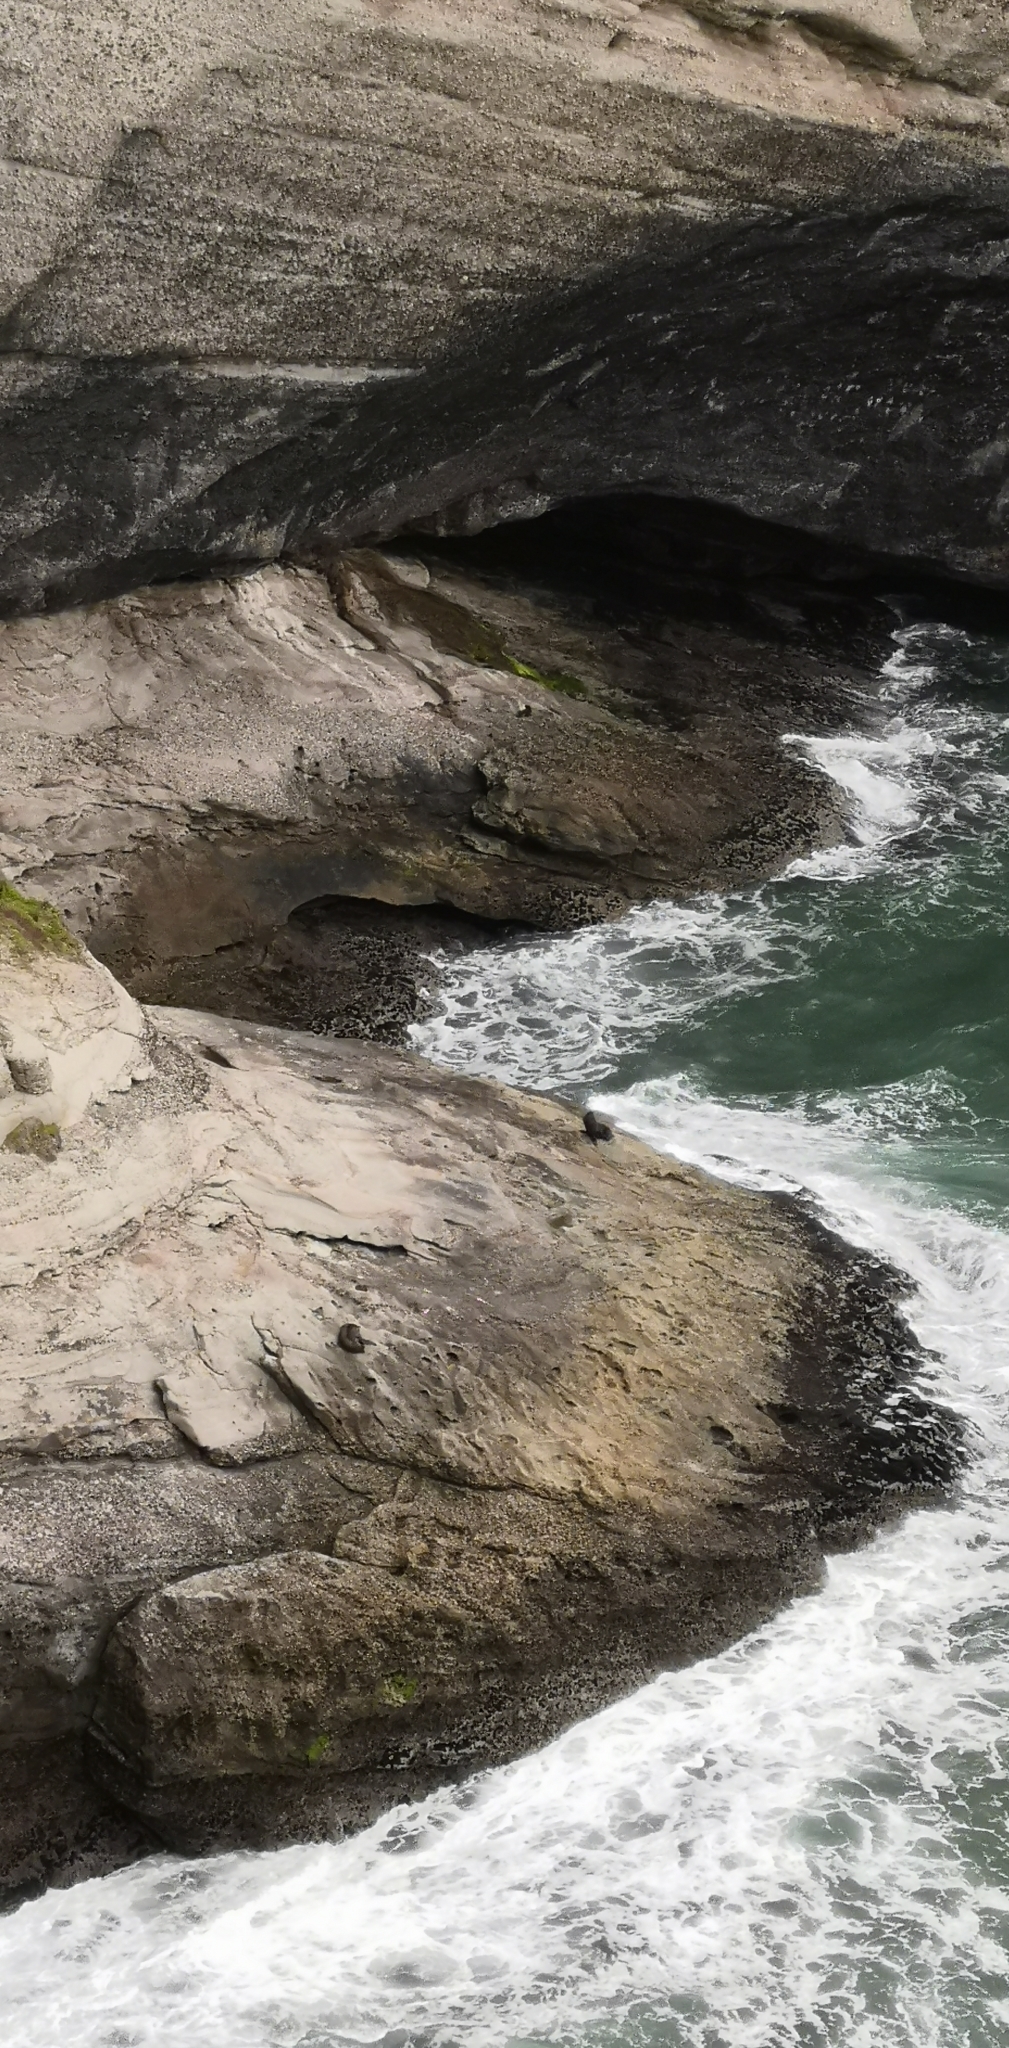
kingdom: Animalia
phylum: Chordata
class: Mammalia
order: Carnivora
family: Otariidae
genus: Arctocephalus
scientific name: Arctocephalus forsteri
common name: New zealand fur seal
